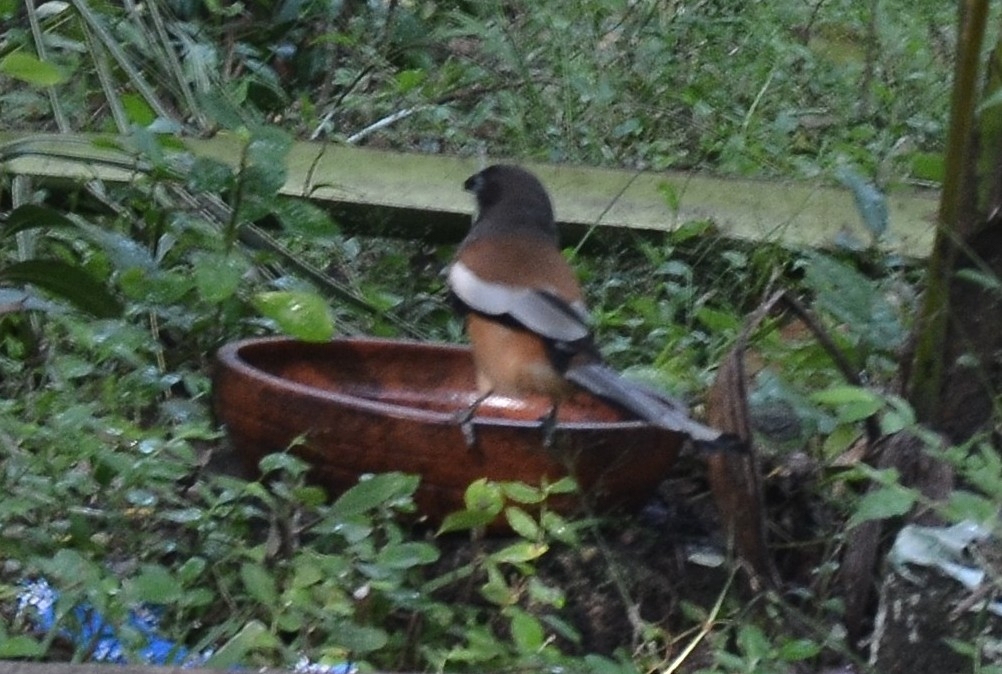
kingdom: Animalia
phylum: Chordata
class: Aves
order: Passeriformes
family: Corvidae
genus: Dendrocitta
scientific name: Dendrocitta vagabunda
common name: Rufous treepie
